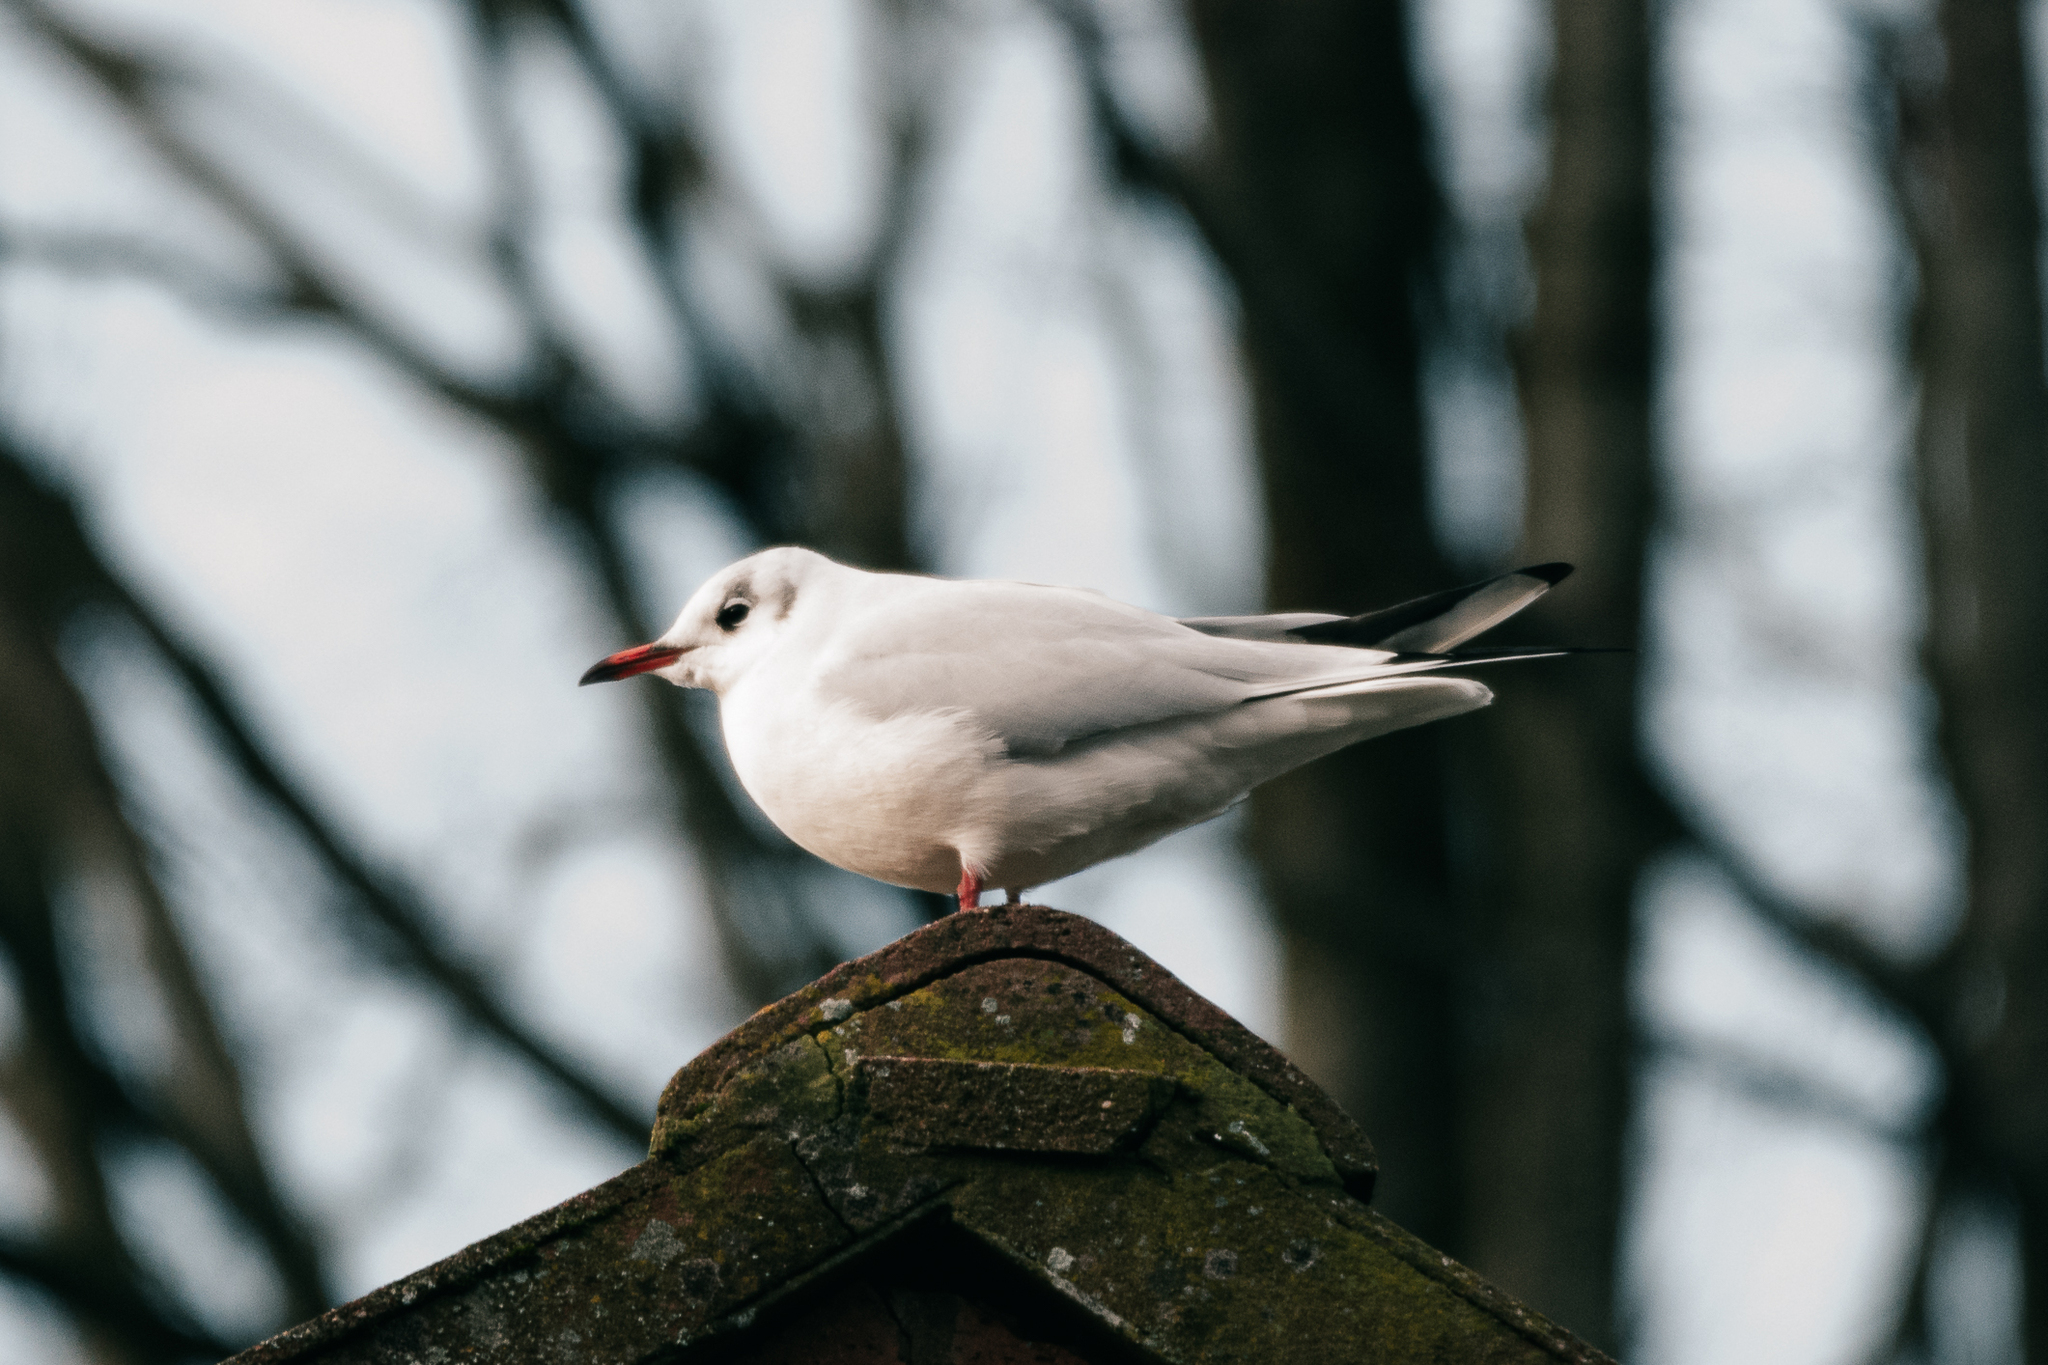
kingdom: Animalia
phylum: Chordata
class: Aves
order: Charadriiformes
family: Laridae
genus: Chroicocephalus
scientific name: Chroicocephalus ridibundus
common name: Black-headed gull
